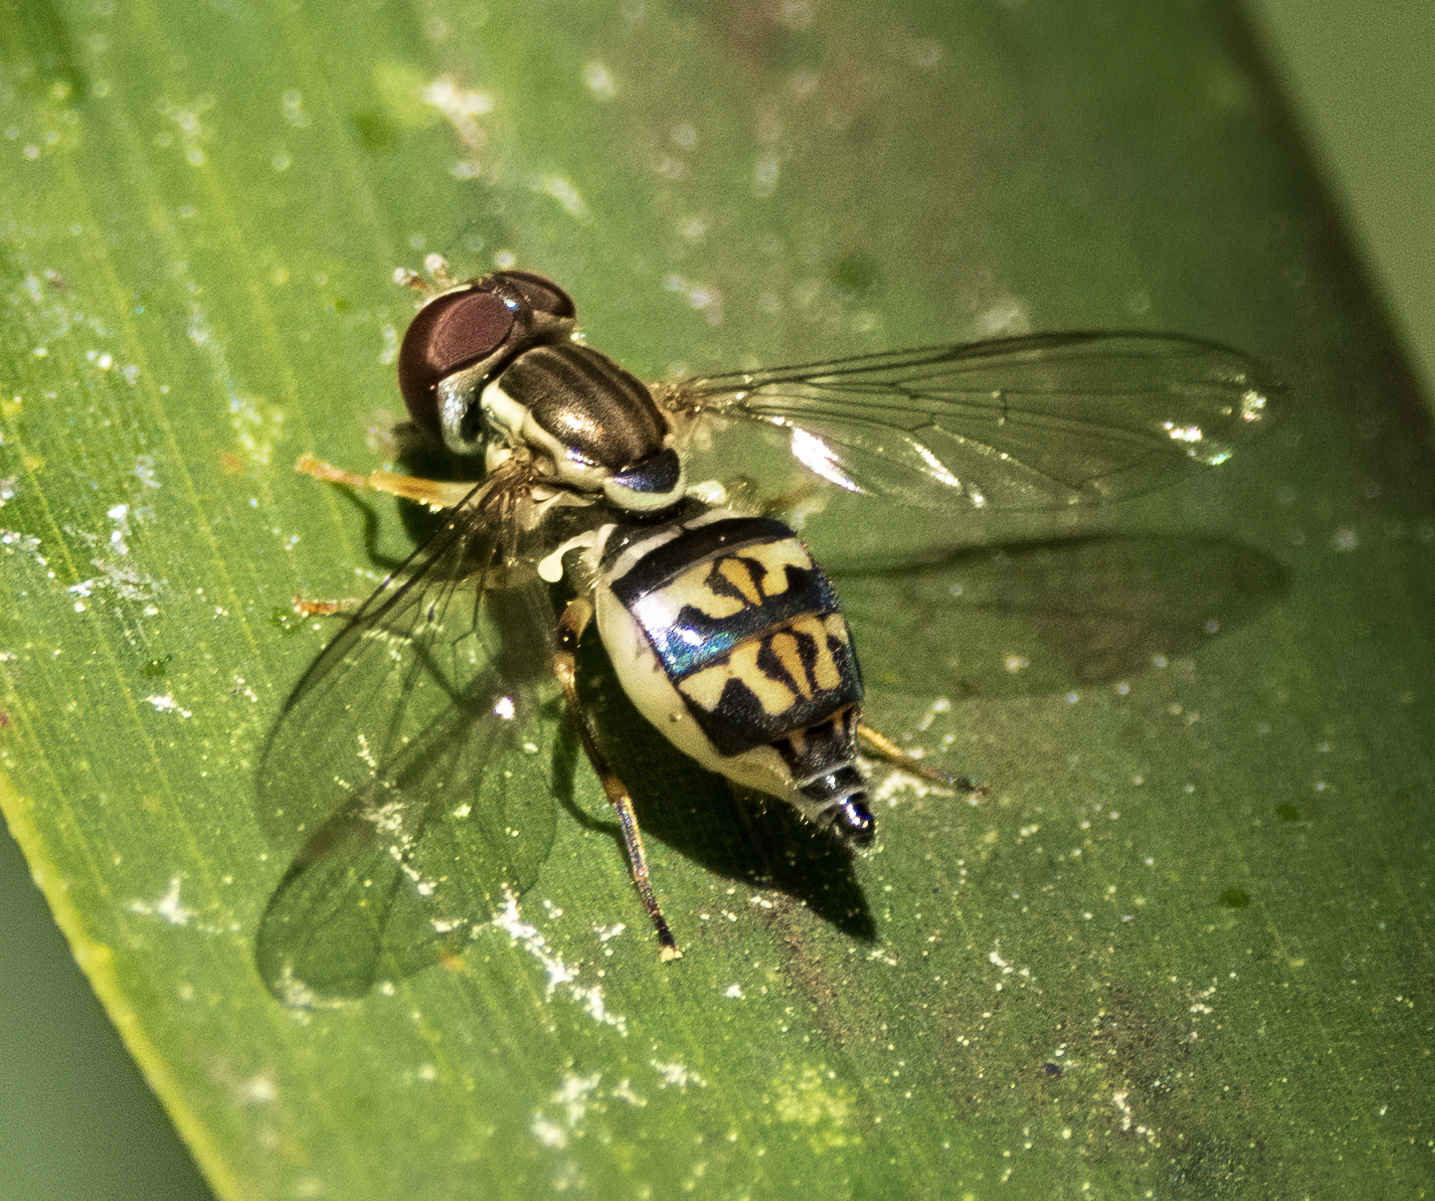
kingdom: Animalia
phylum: Arthropoda
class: Insecta
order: Diptera
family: Syrphidae
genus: Toxomerus
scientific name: Toxomerus geminatus
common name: Eastern calligrapher
